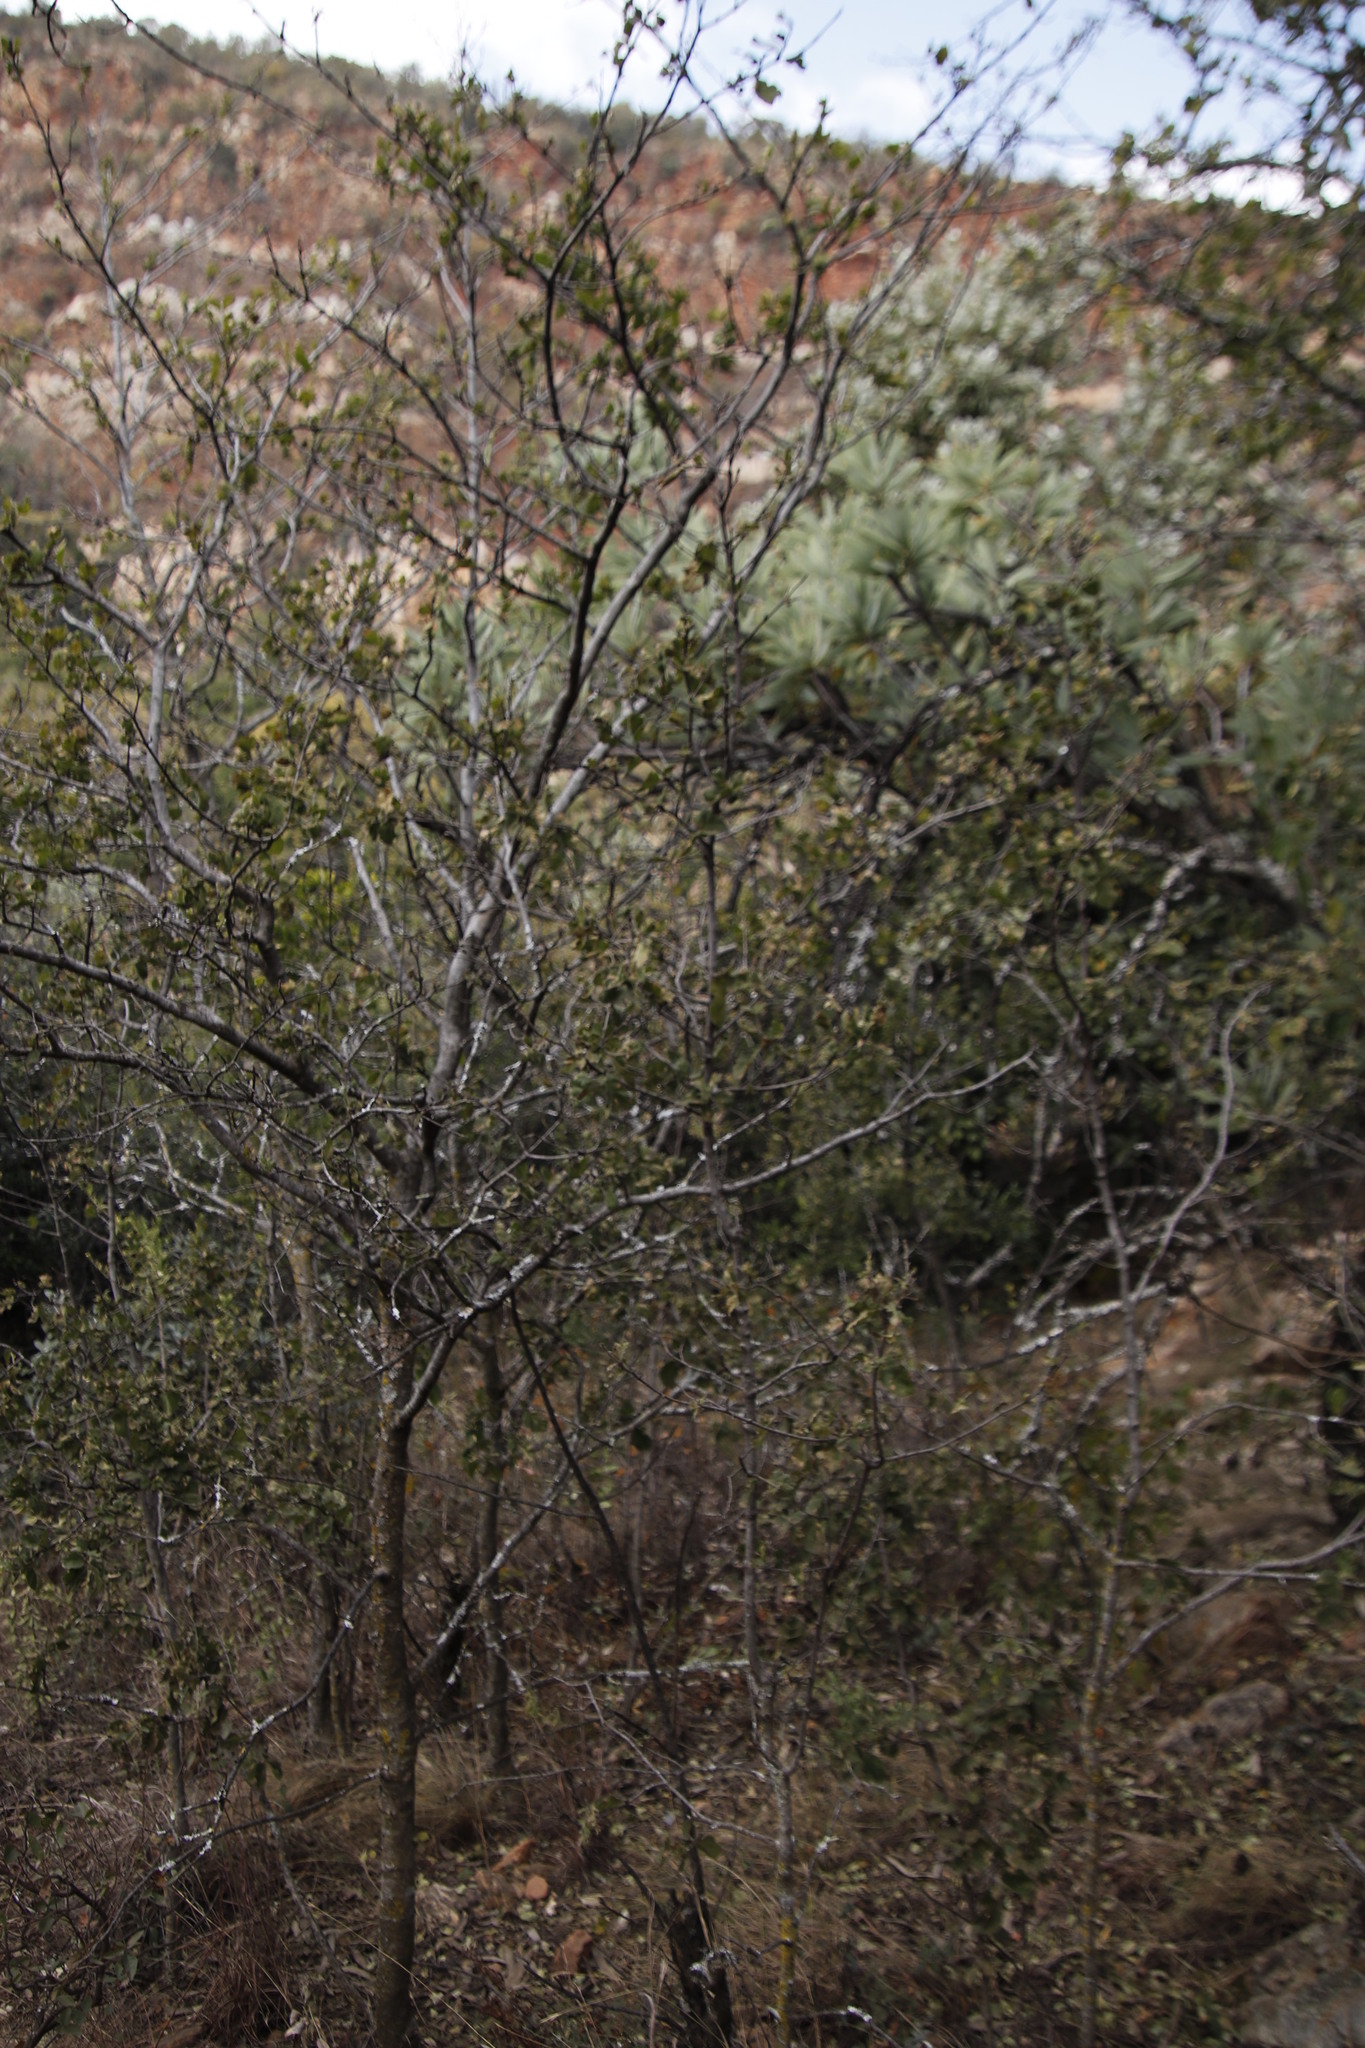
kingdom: Plantae
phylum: Tracheophyta
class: Magnoliopsida
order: Malvales
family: Malvaceae
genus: Dombeya
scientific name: Dombeya rotundifolia
